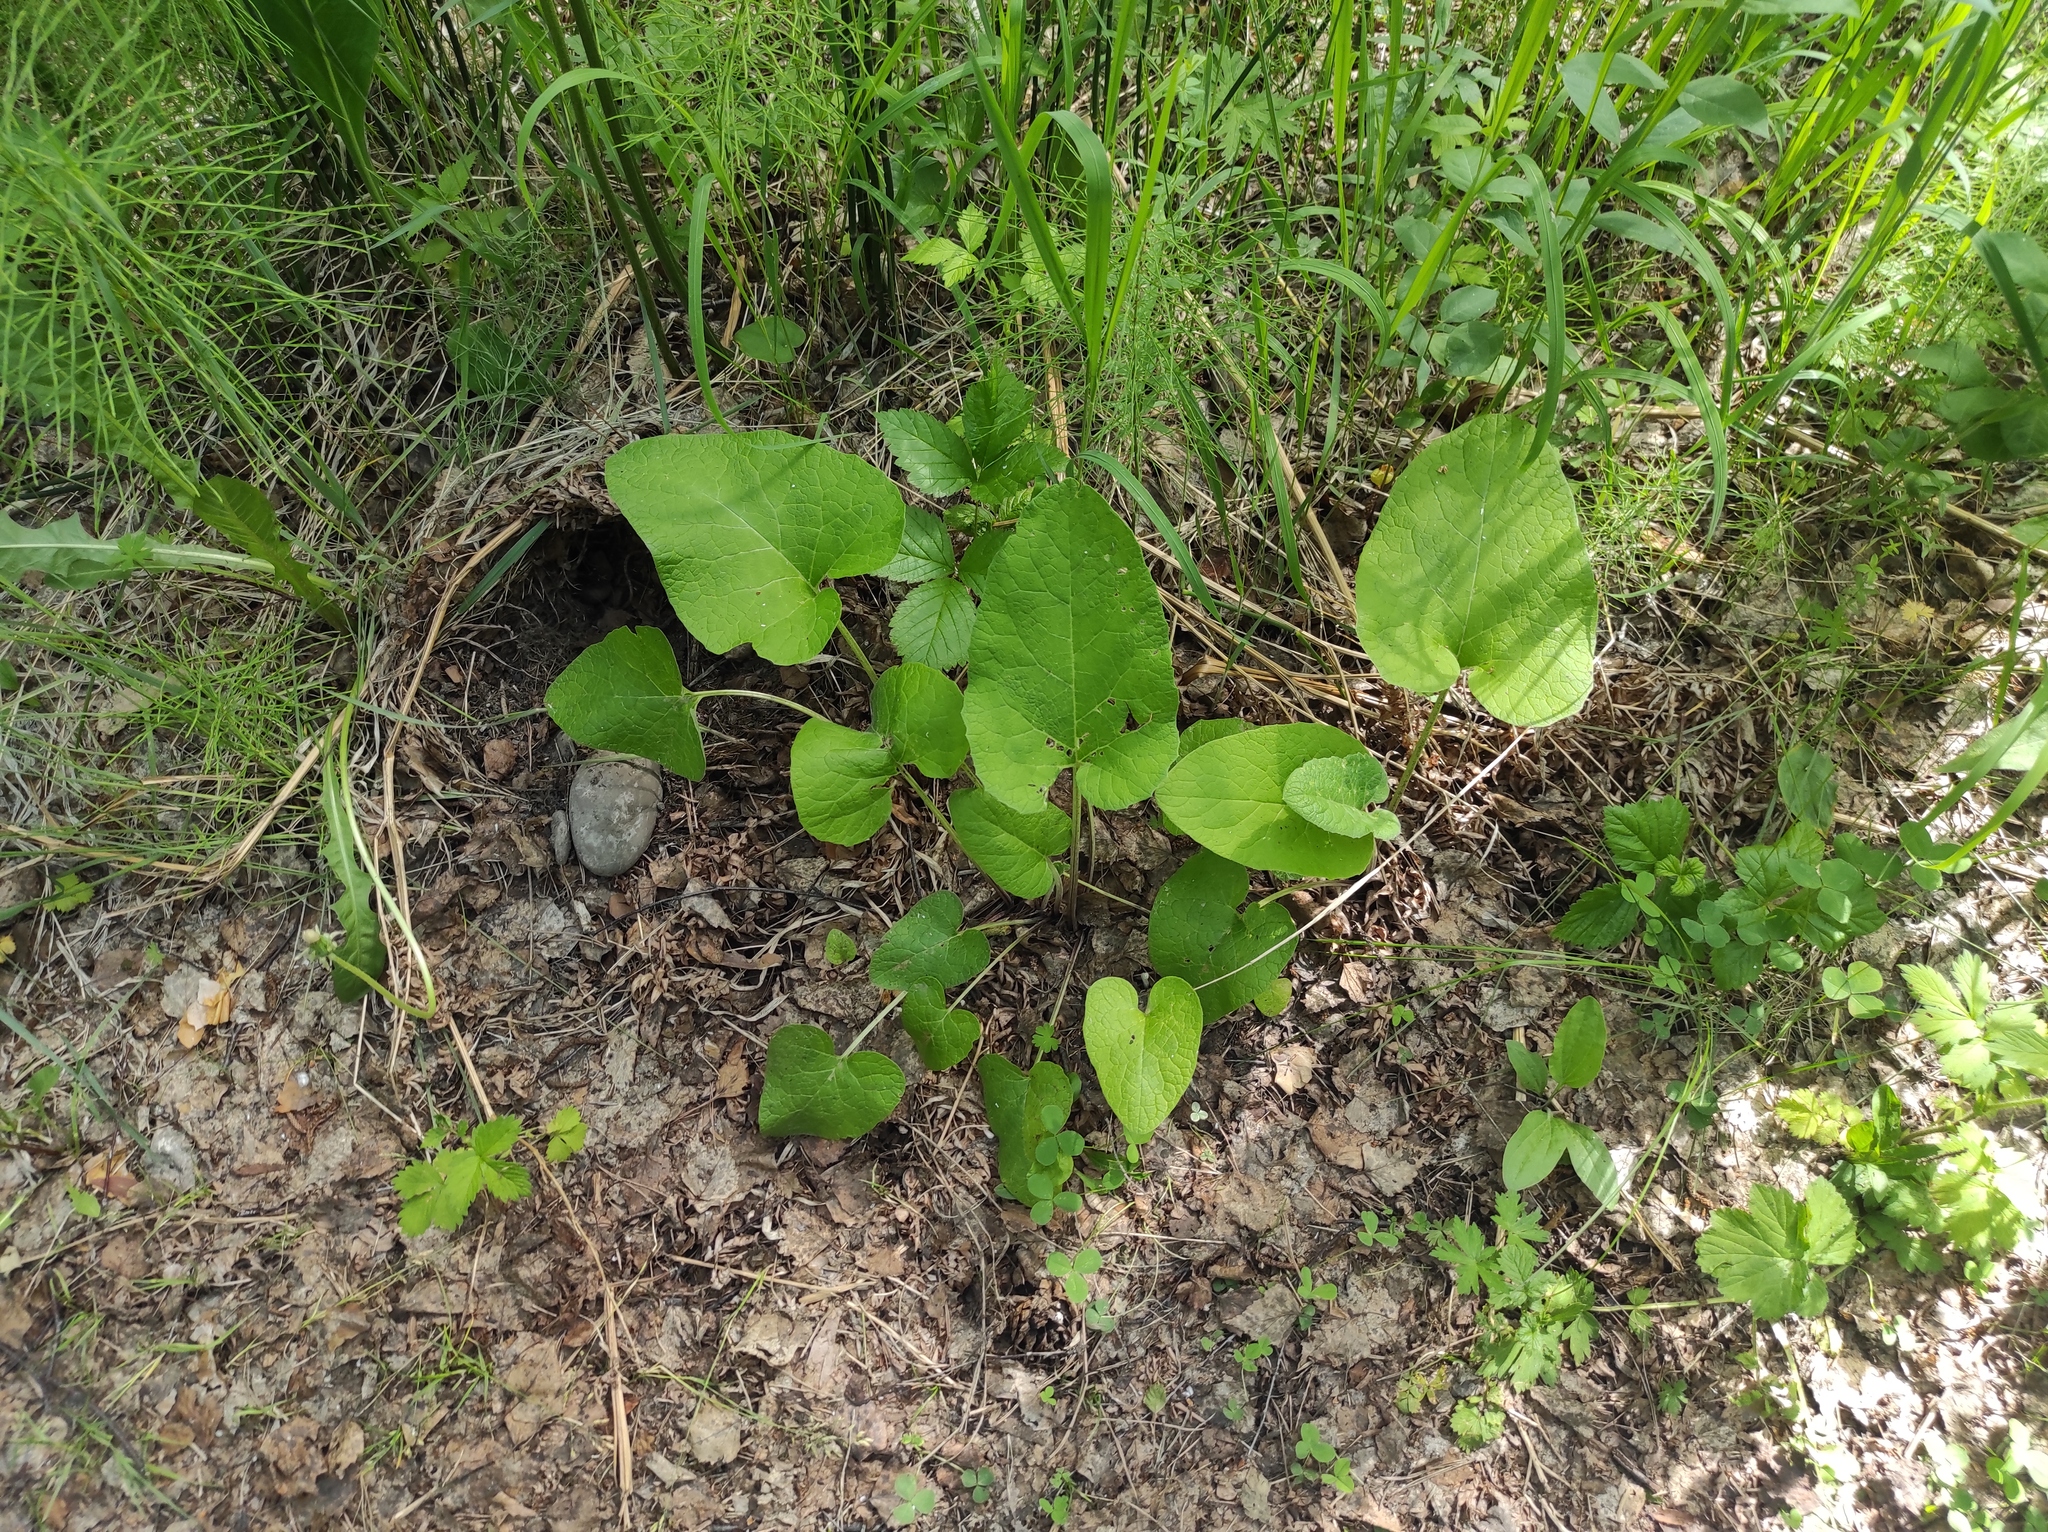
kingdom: Plantae
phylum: Tracheophyta
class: Magnoliopsida
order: Asterales
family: Asteraceae
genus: Arctium
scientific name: Arctium
